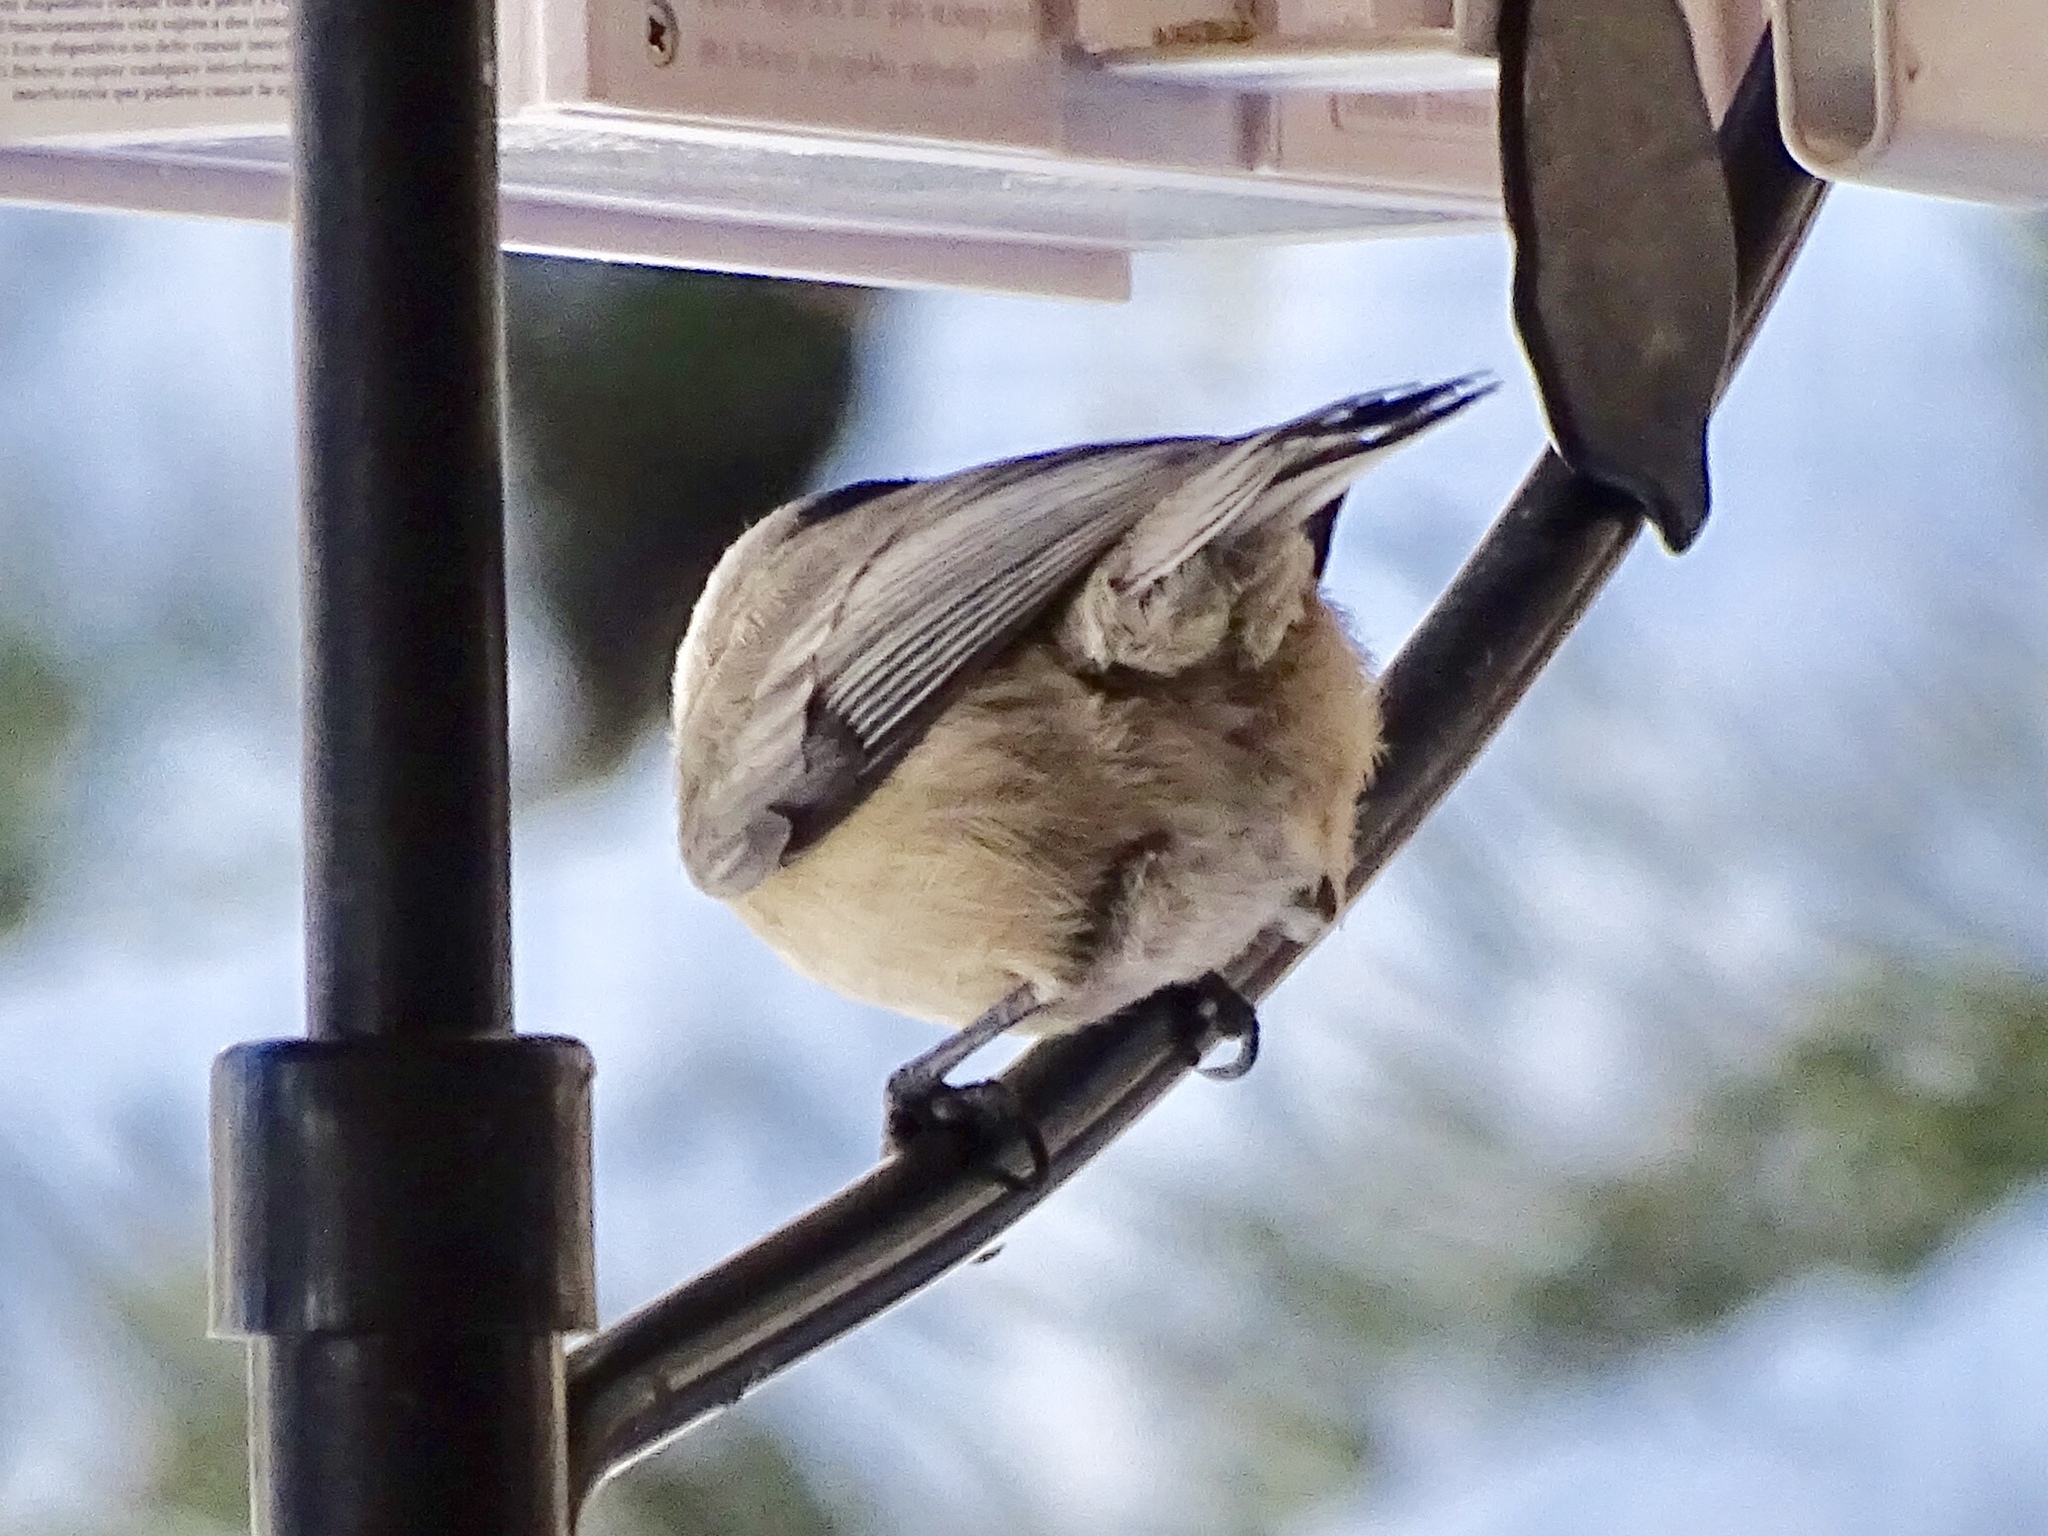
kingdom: Animalia
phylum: Chordata
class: Aves
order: Passeriformes
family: Paridae
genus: Poecile
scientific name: Poecile gambeli
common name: Mountain chickadee
